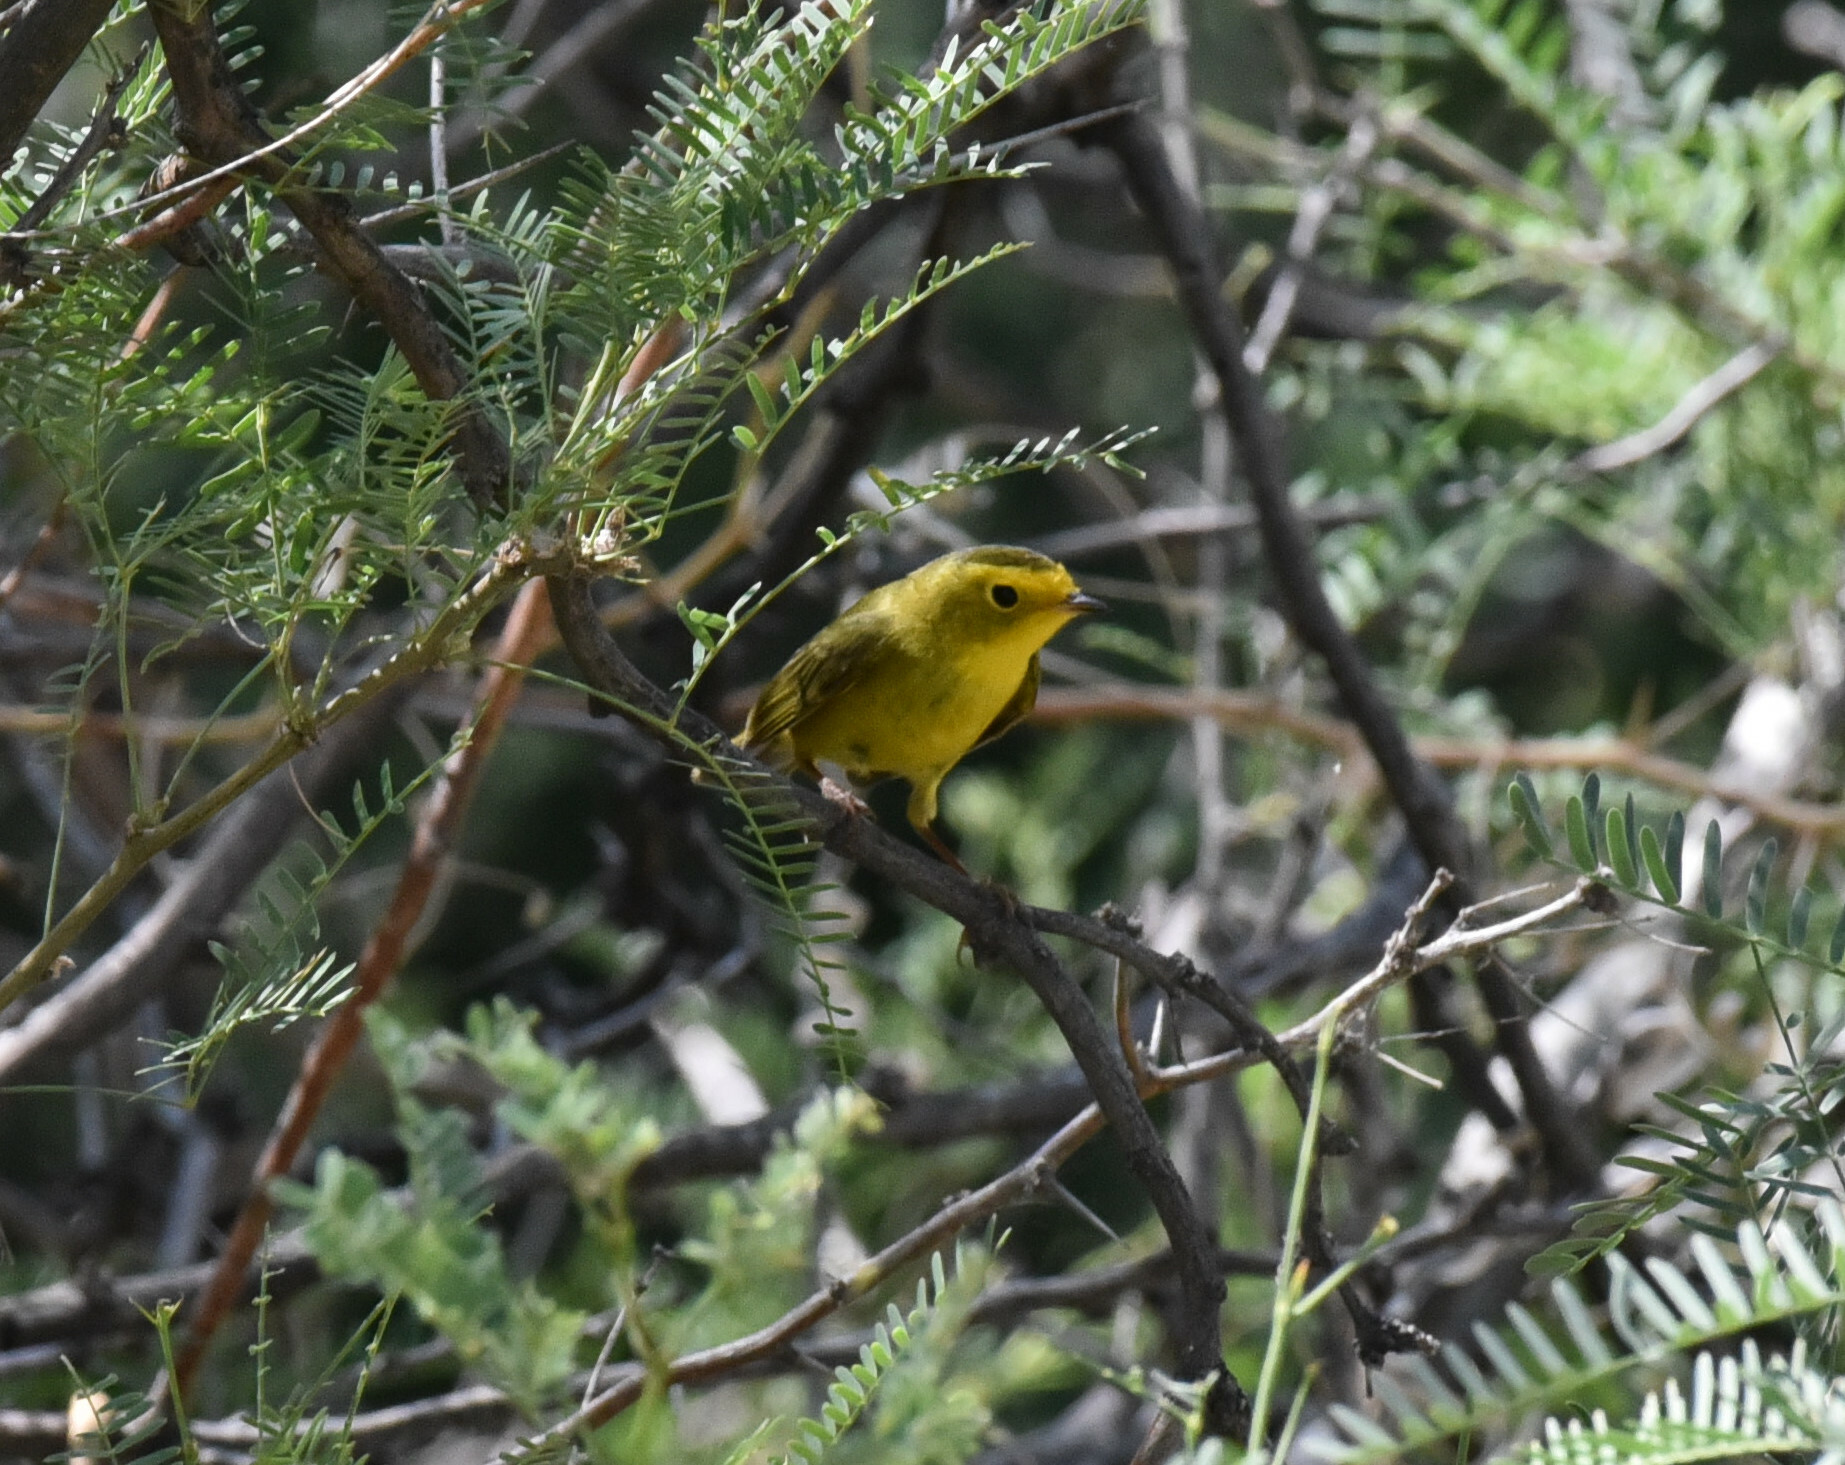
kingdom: Animalia
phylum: Chordata
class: Aves
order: Passeriformes
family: Parulidae
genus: Cardellina
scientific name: Cardellina pusilla
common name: Wilson's warbler
